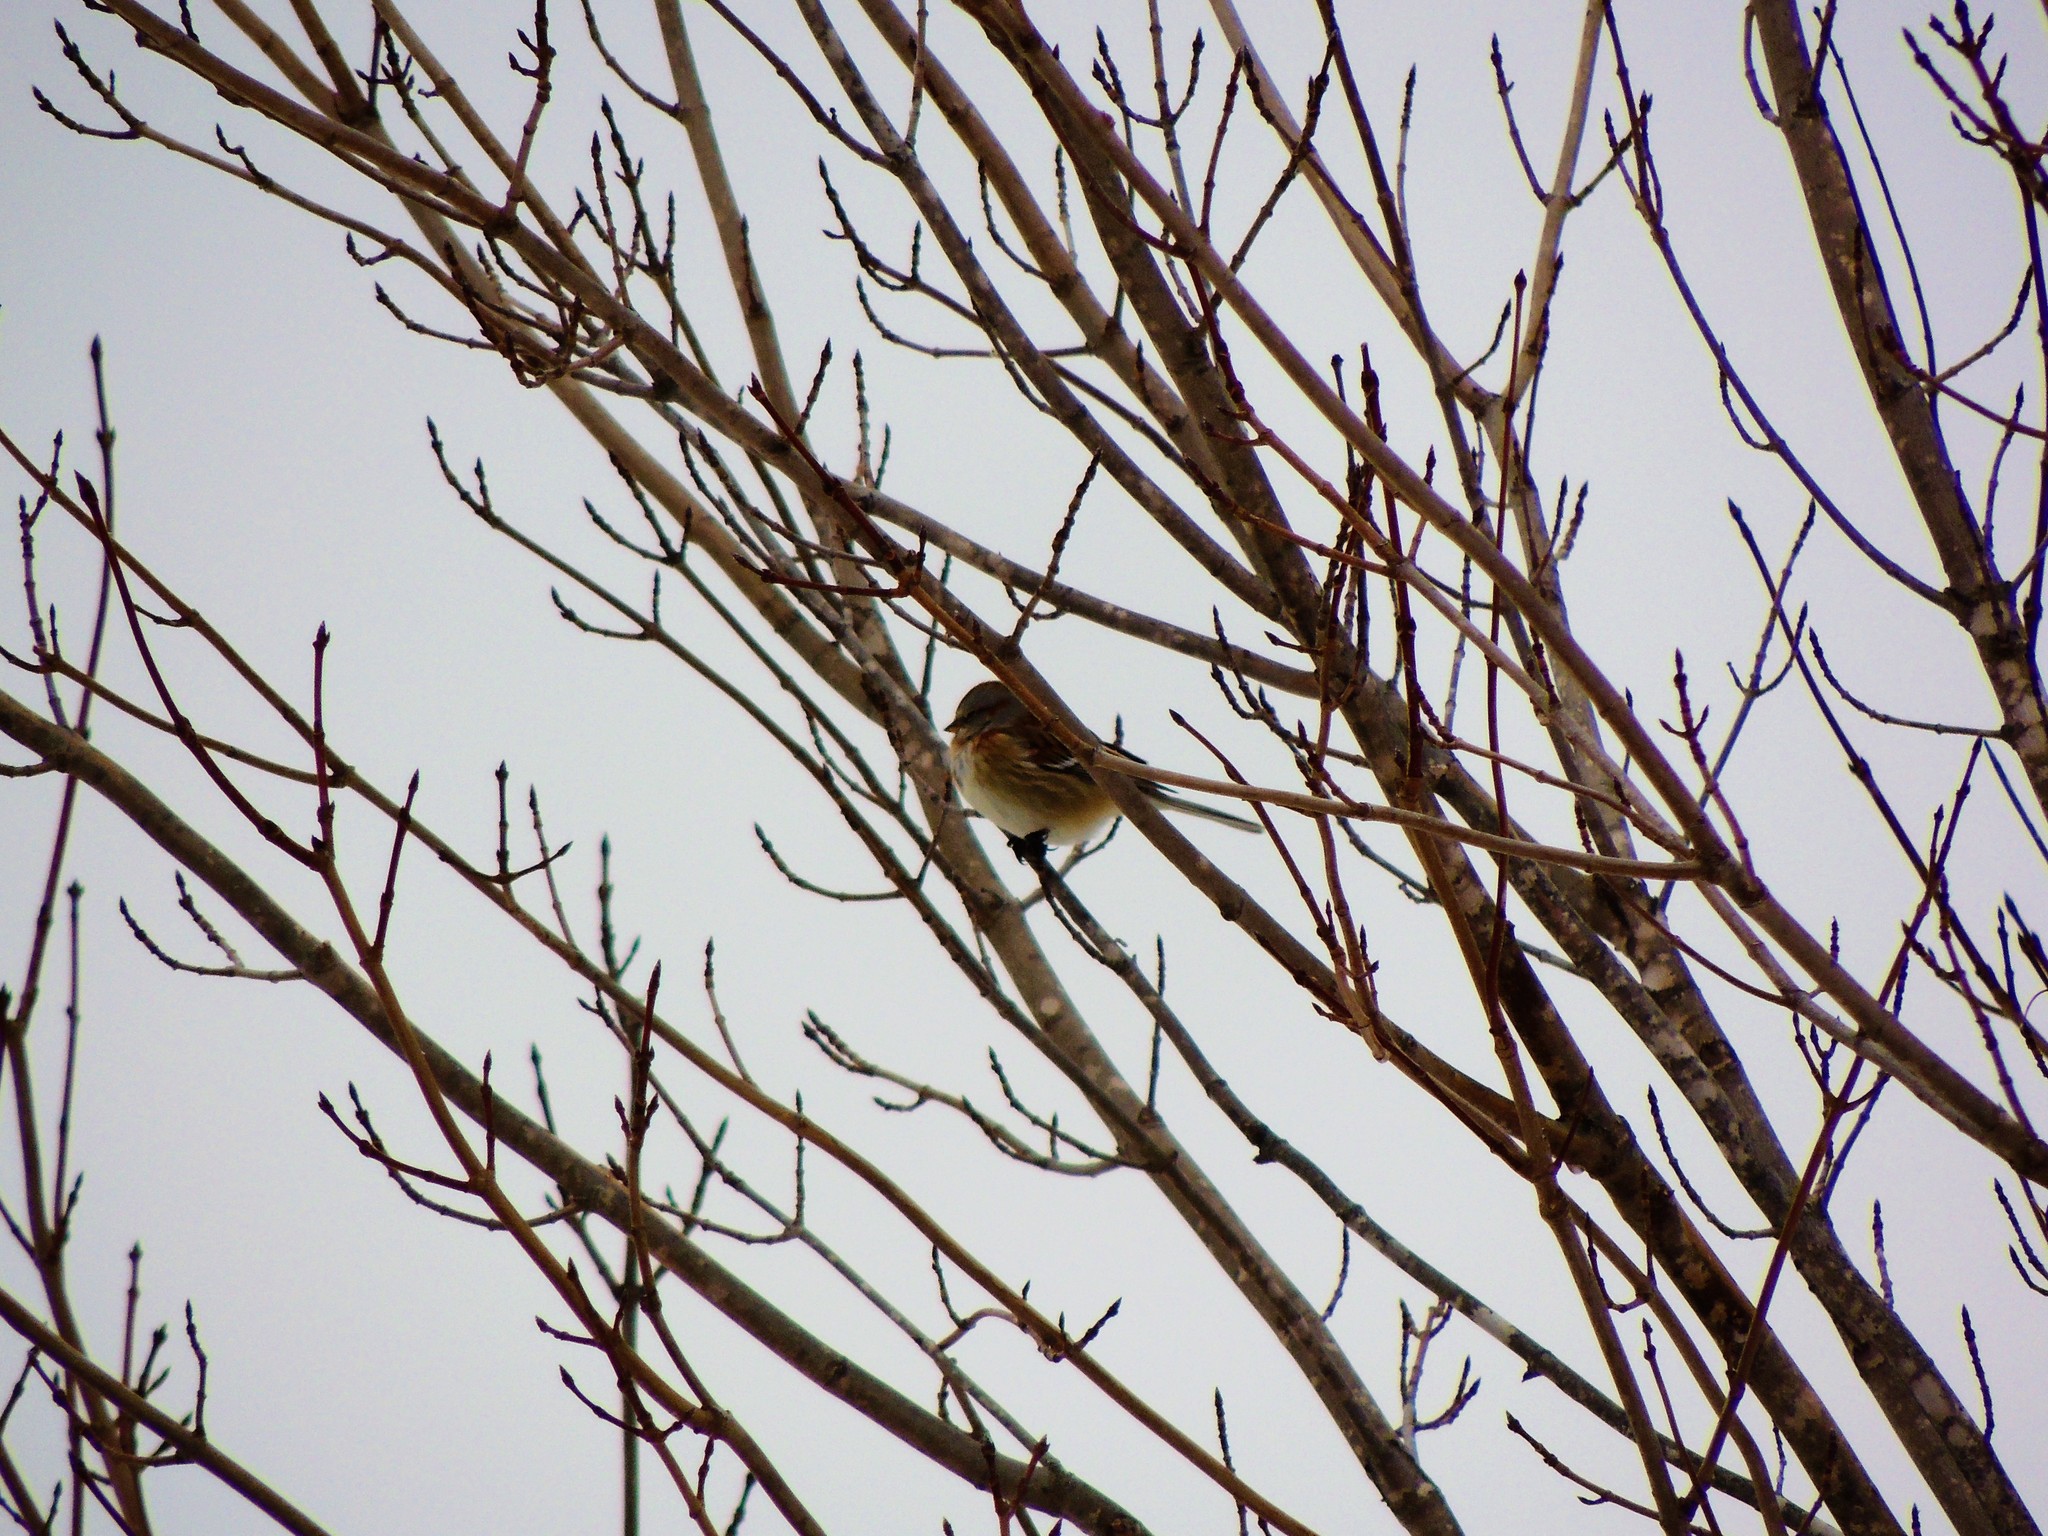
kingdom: Animalia
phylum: Chordata
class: Aves
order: Passeriformes
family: Passerellidae
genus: Spizelloides
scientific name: Spizelloides arborea
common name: American tree sparrow
